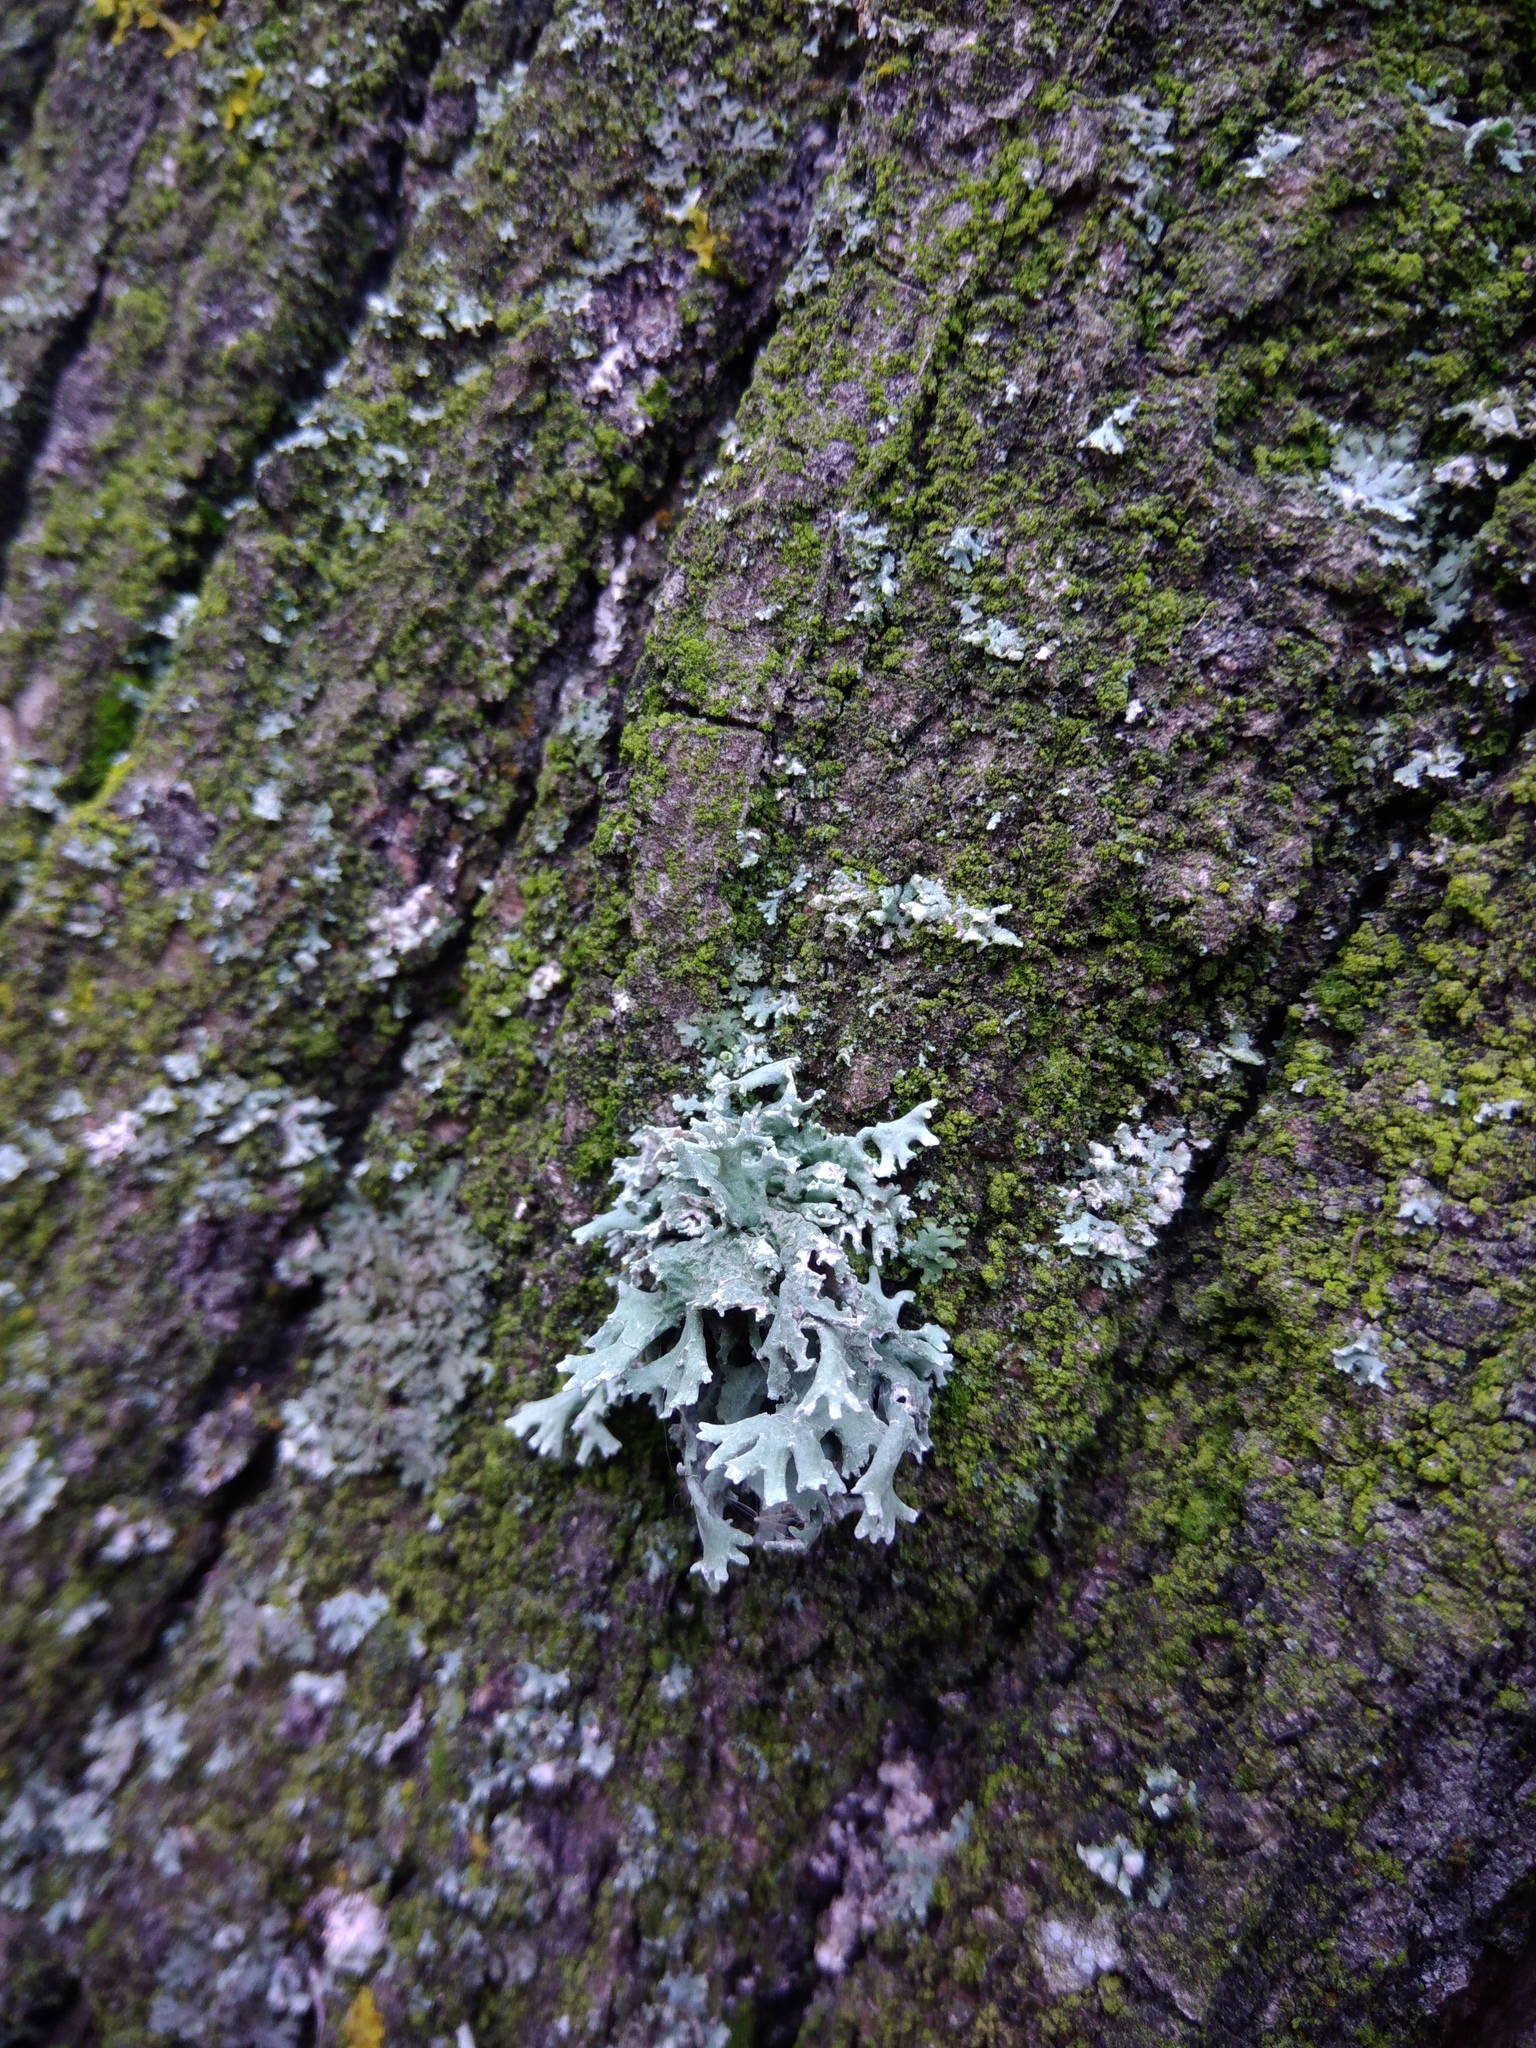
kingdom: Fungi
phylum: Ascomycota
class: Lecanoromycetes
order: Lecanorales
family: Parmeliaceae
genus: Evernia
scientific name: Evernia prunastri
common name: Oak moss
